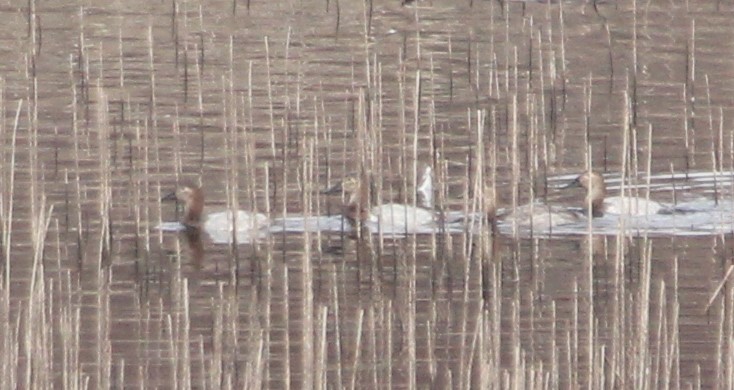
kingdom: Animalia
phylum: Chordata
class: Aves
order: Anseriformes
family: Anatidae
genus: Aythya
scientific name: Aythya valisineria
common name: Canvasback
